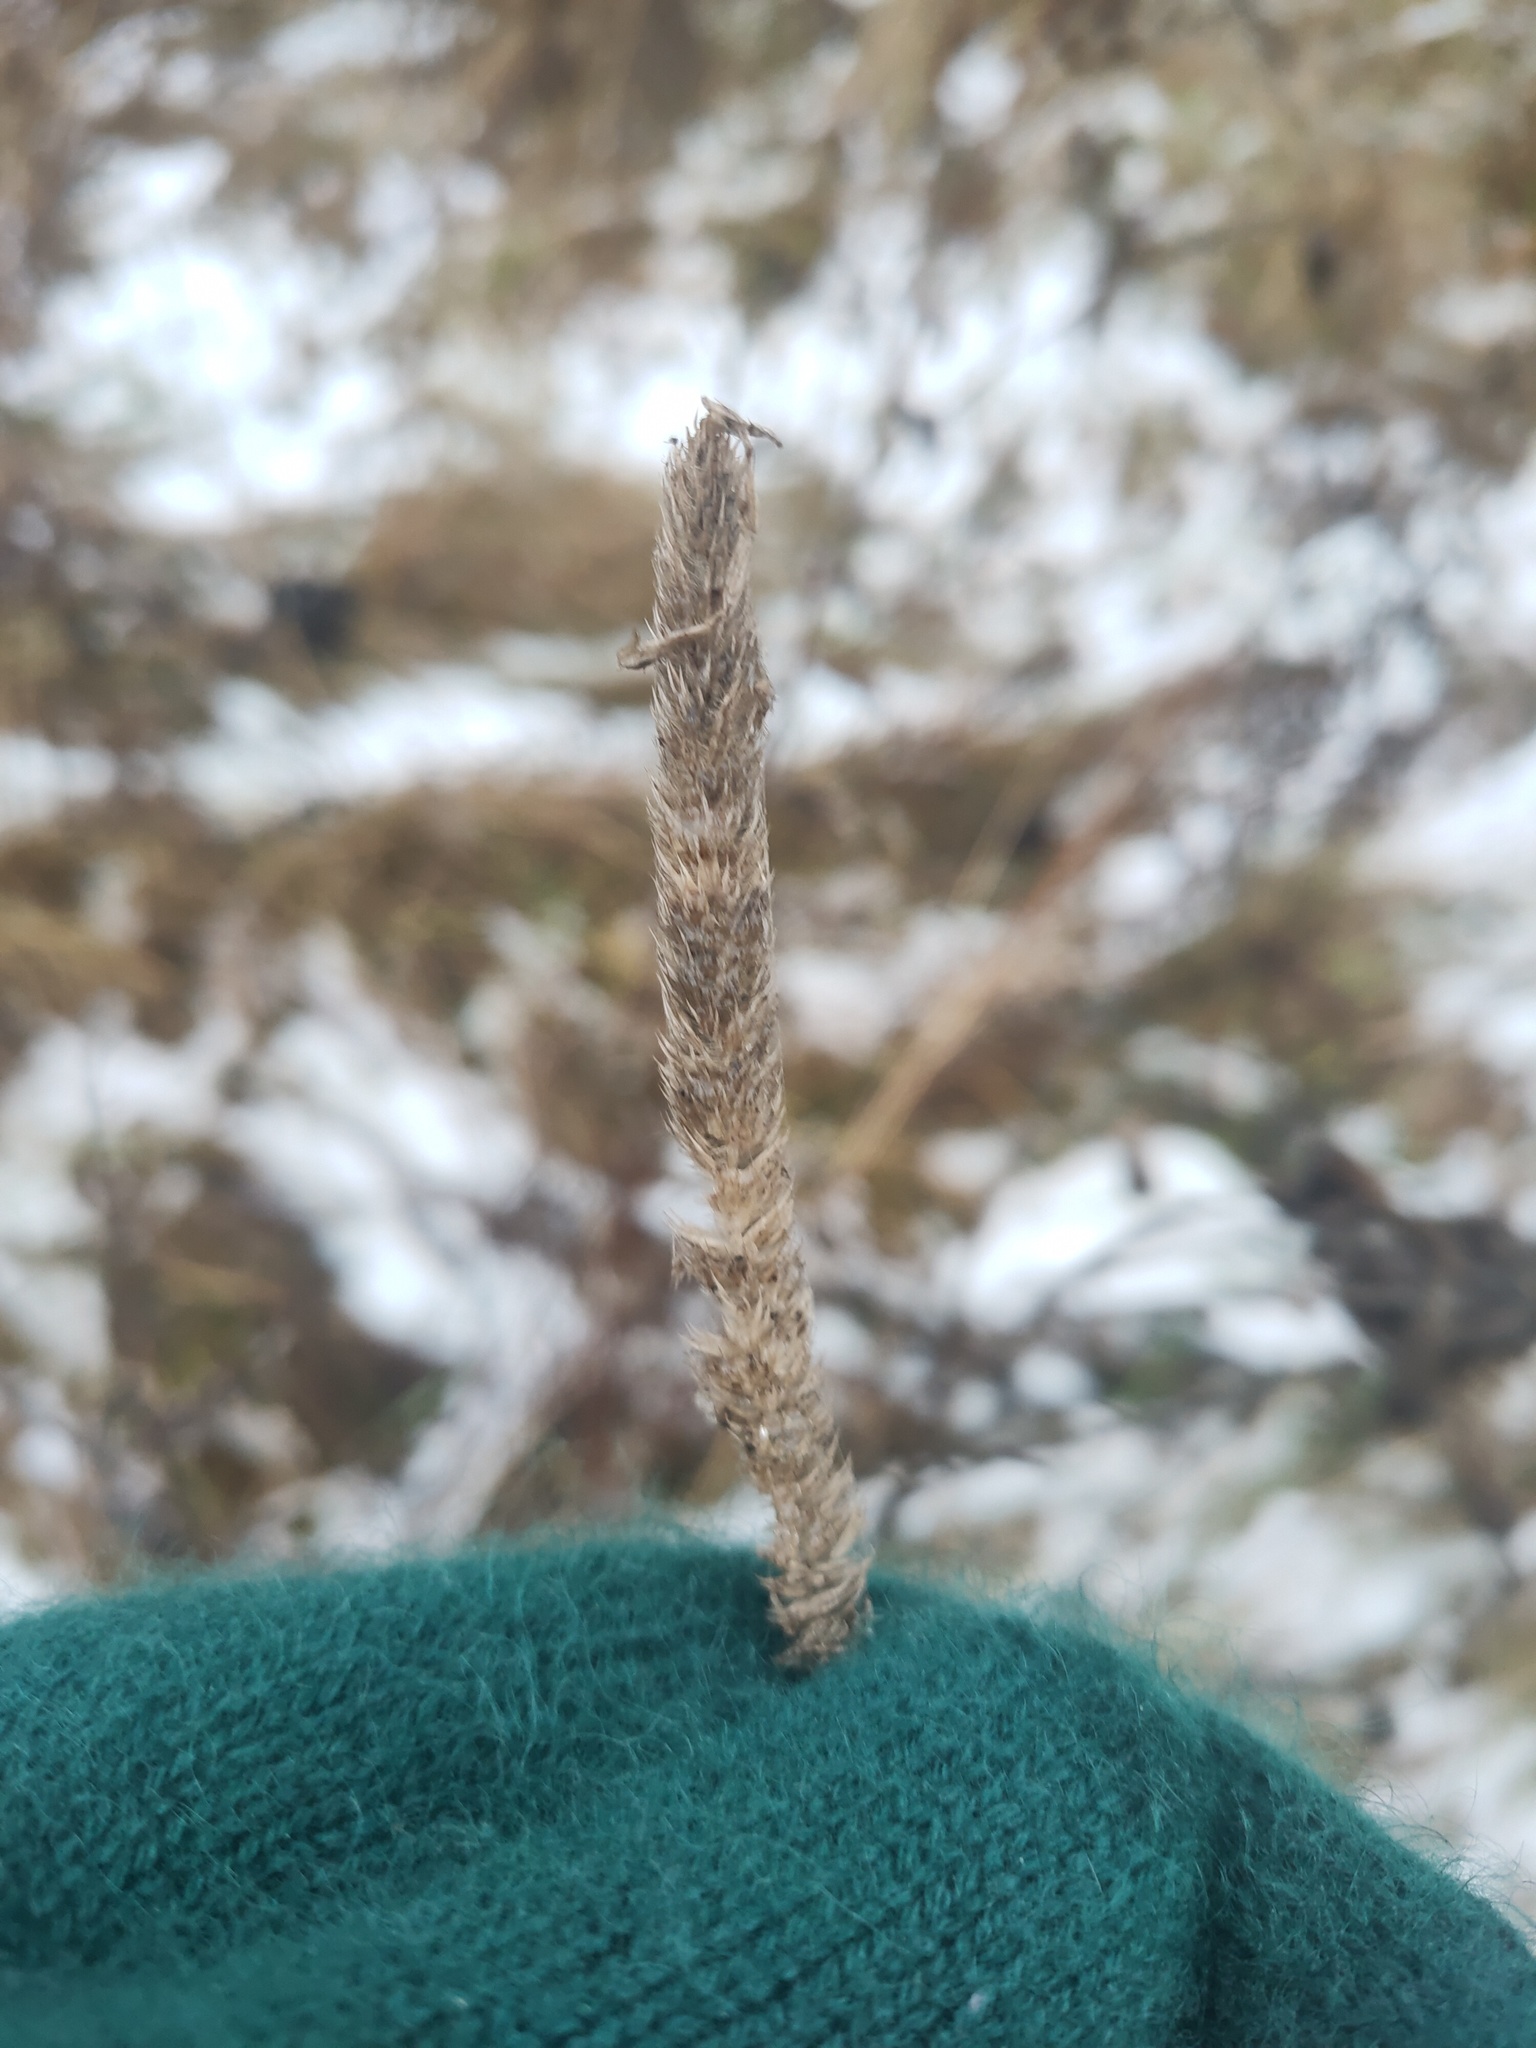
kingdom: Plantae
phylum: Tracheophyta
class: Liliopsida
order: Poales
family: Poaceae
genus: Phleum
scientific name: Phleum pratense
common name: Timothy grass
